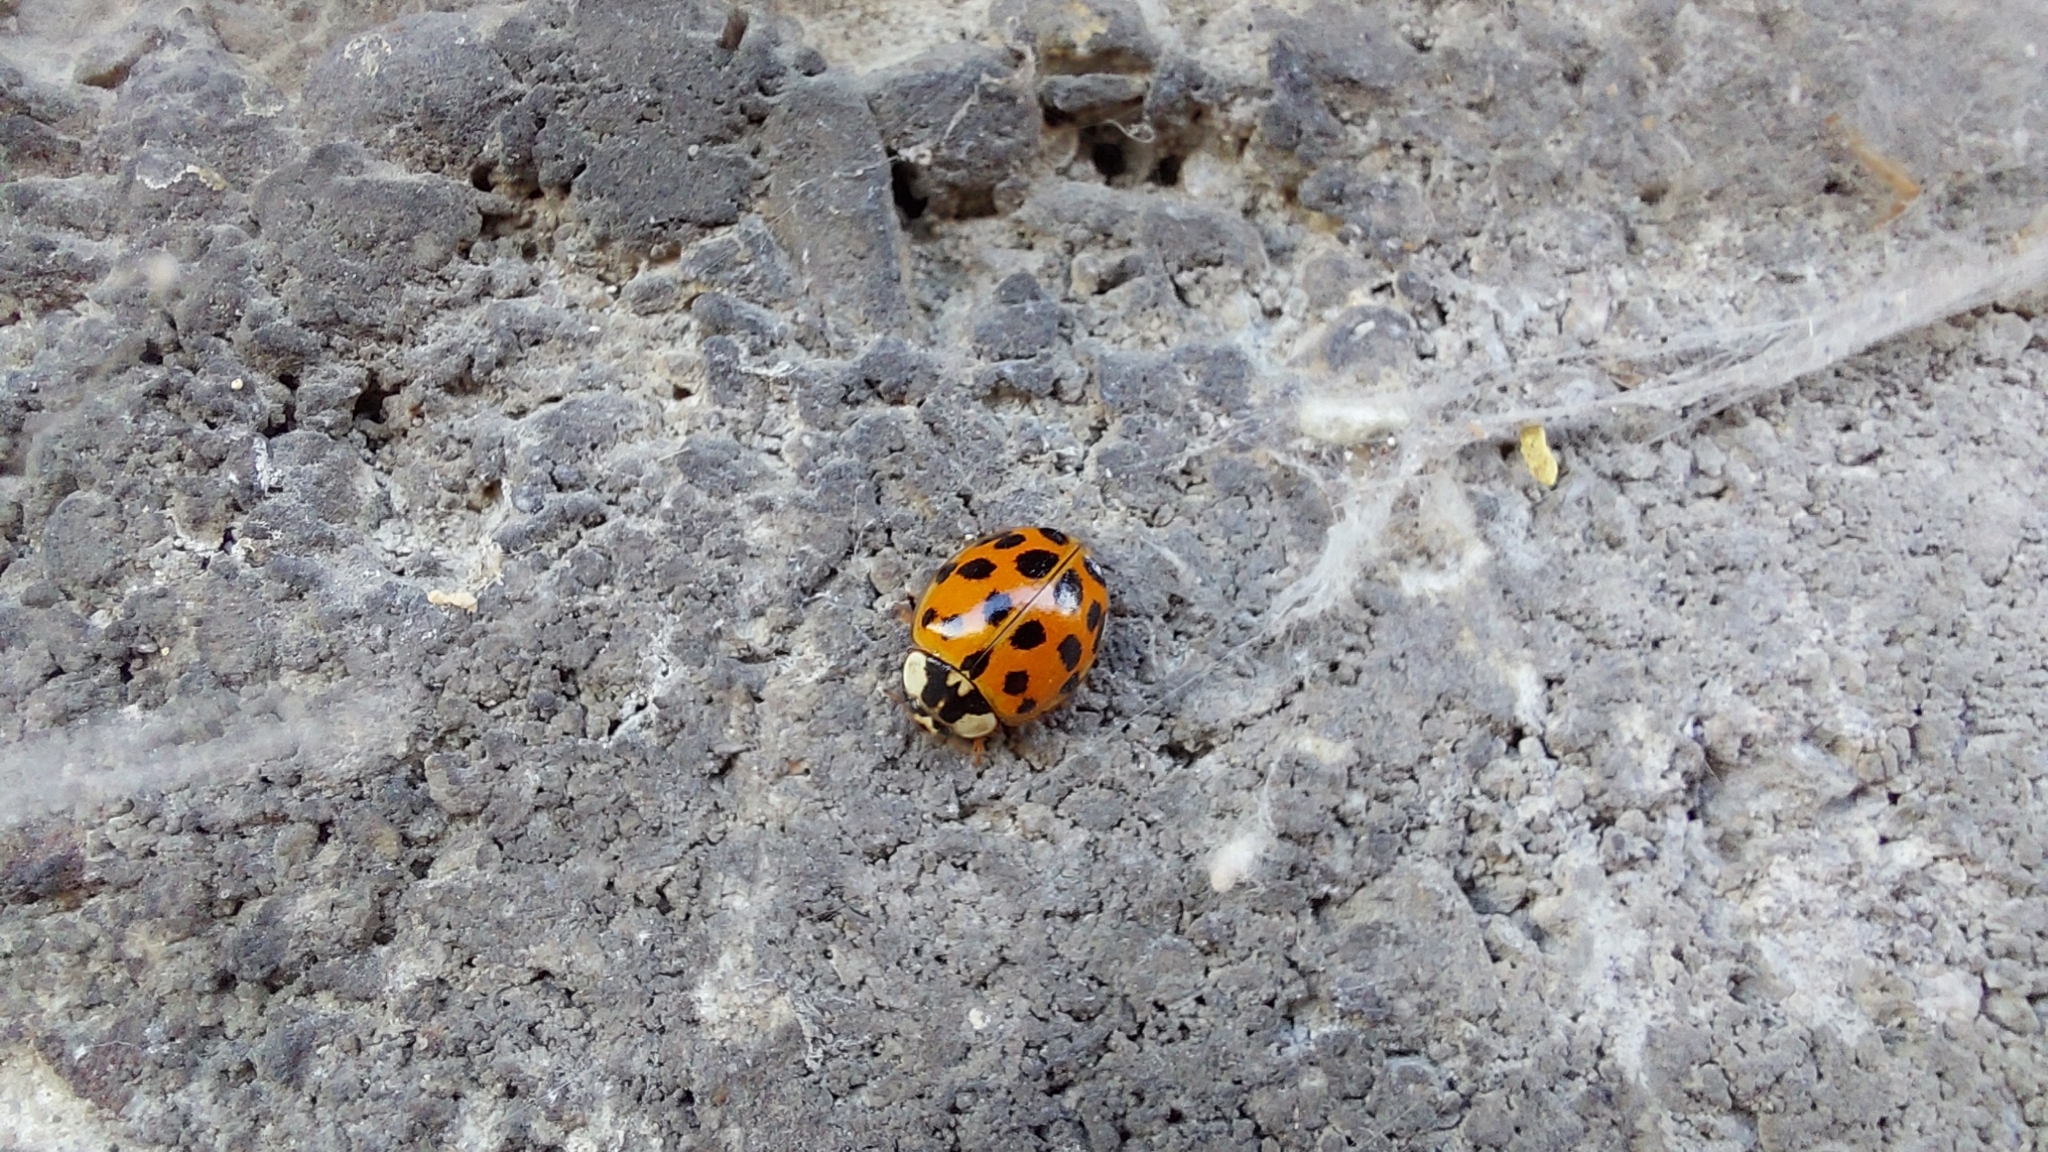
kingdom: Animalia
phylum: Arthropoda
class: Insecta
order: Coleoptera
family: Coccinellidae
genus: Harmonia
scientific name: Harmonia axyridis
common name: Harlequin ladybird
